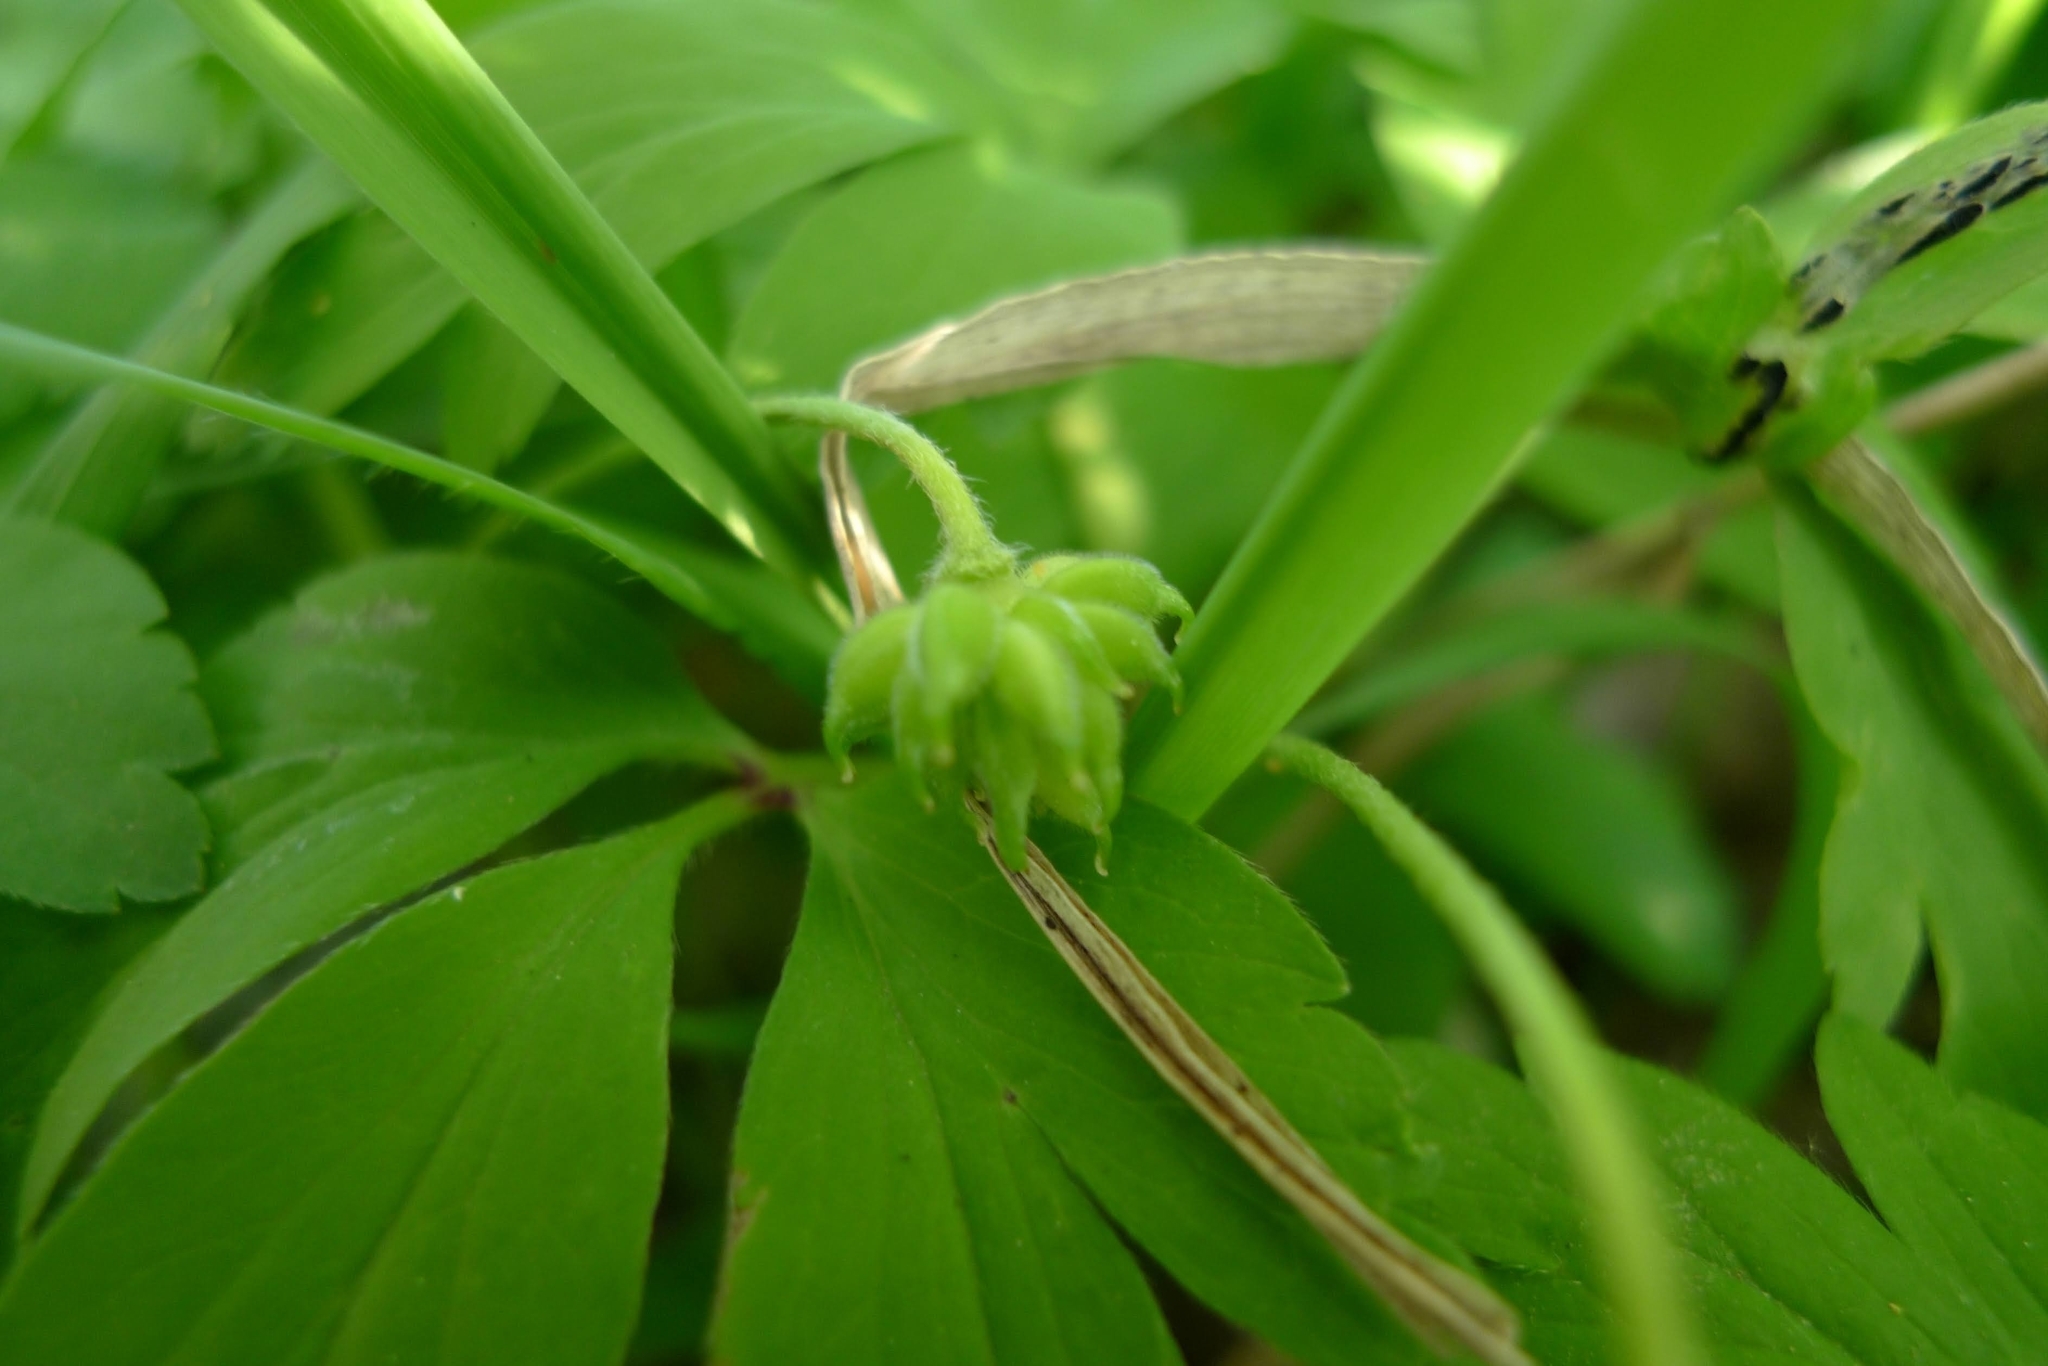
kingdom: Plantae
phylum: Tracheophyta
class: Magnoliopsida
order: Ranunculales
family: Ranunculaceae
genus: Anemone
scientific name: Anemone nemorosa
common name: Wood anemone
